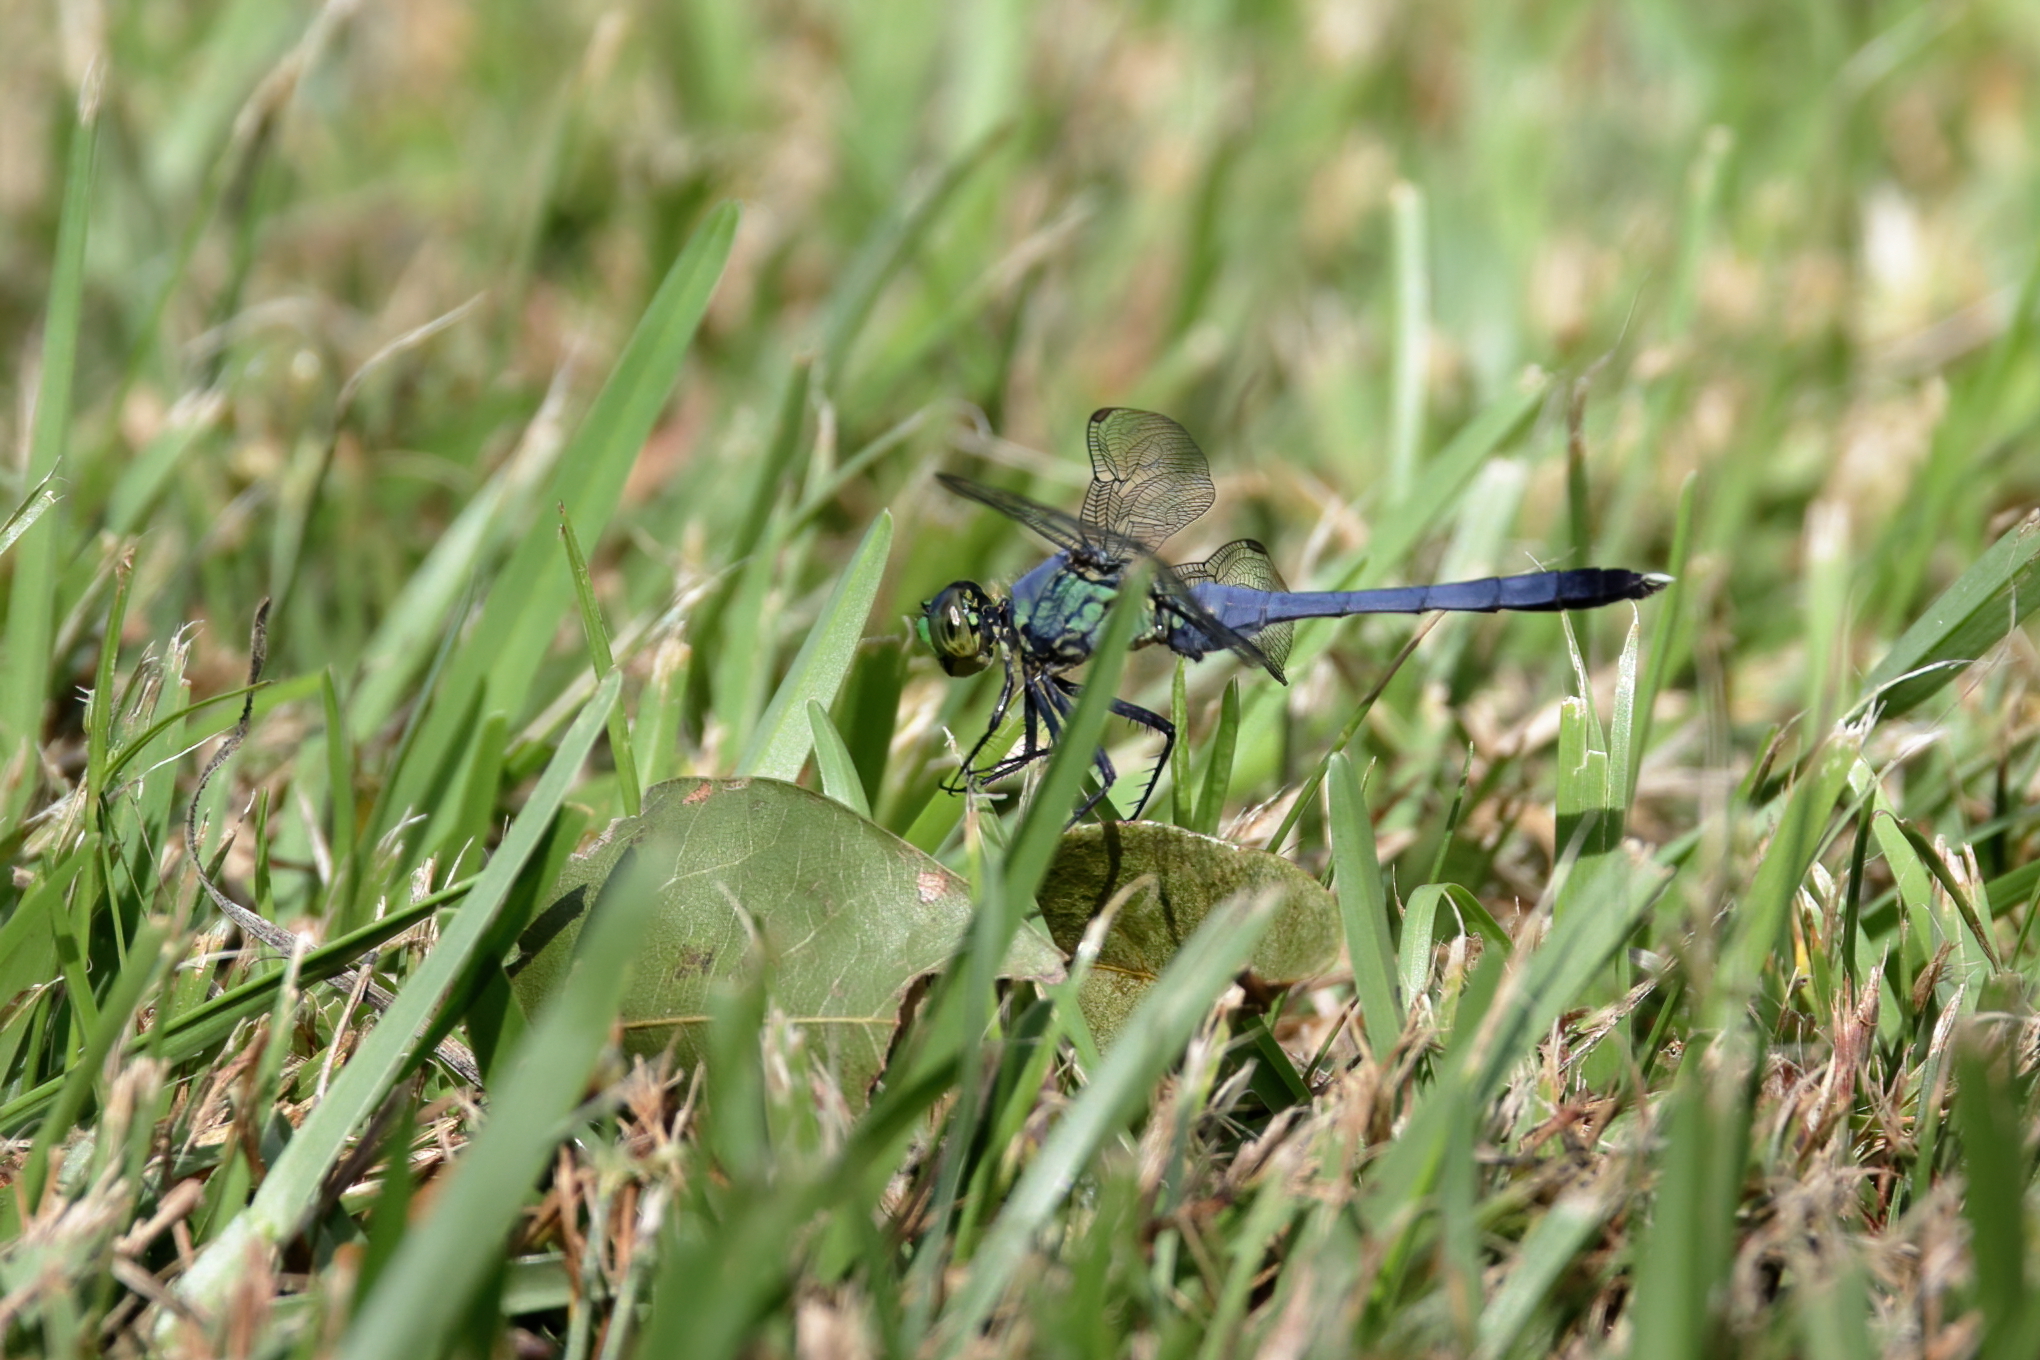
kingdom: Animalia
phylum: Arthropoda
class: Insecta
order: Odonata
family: Libellulidae
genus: Erythemis
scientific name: Erythemis simplicicollis
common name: Eastern pondhawk
